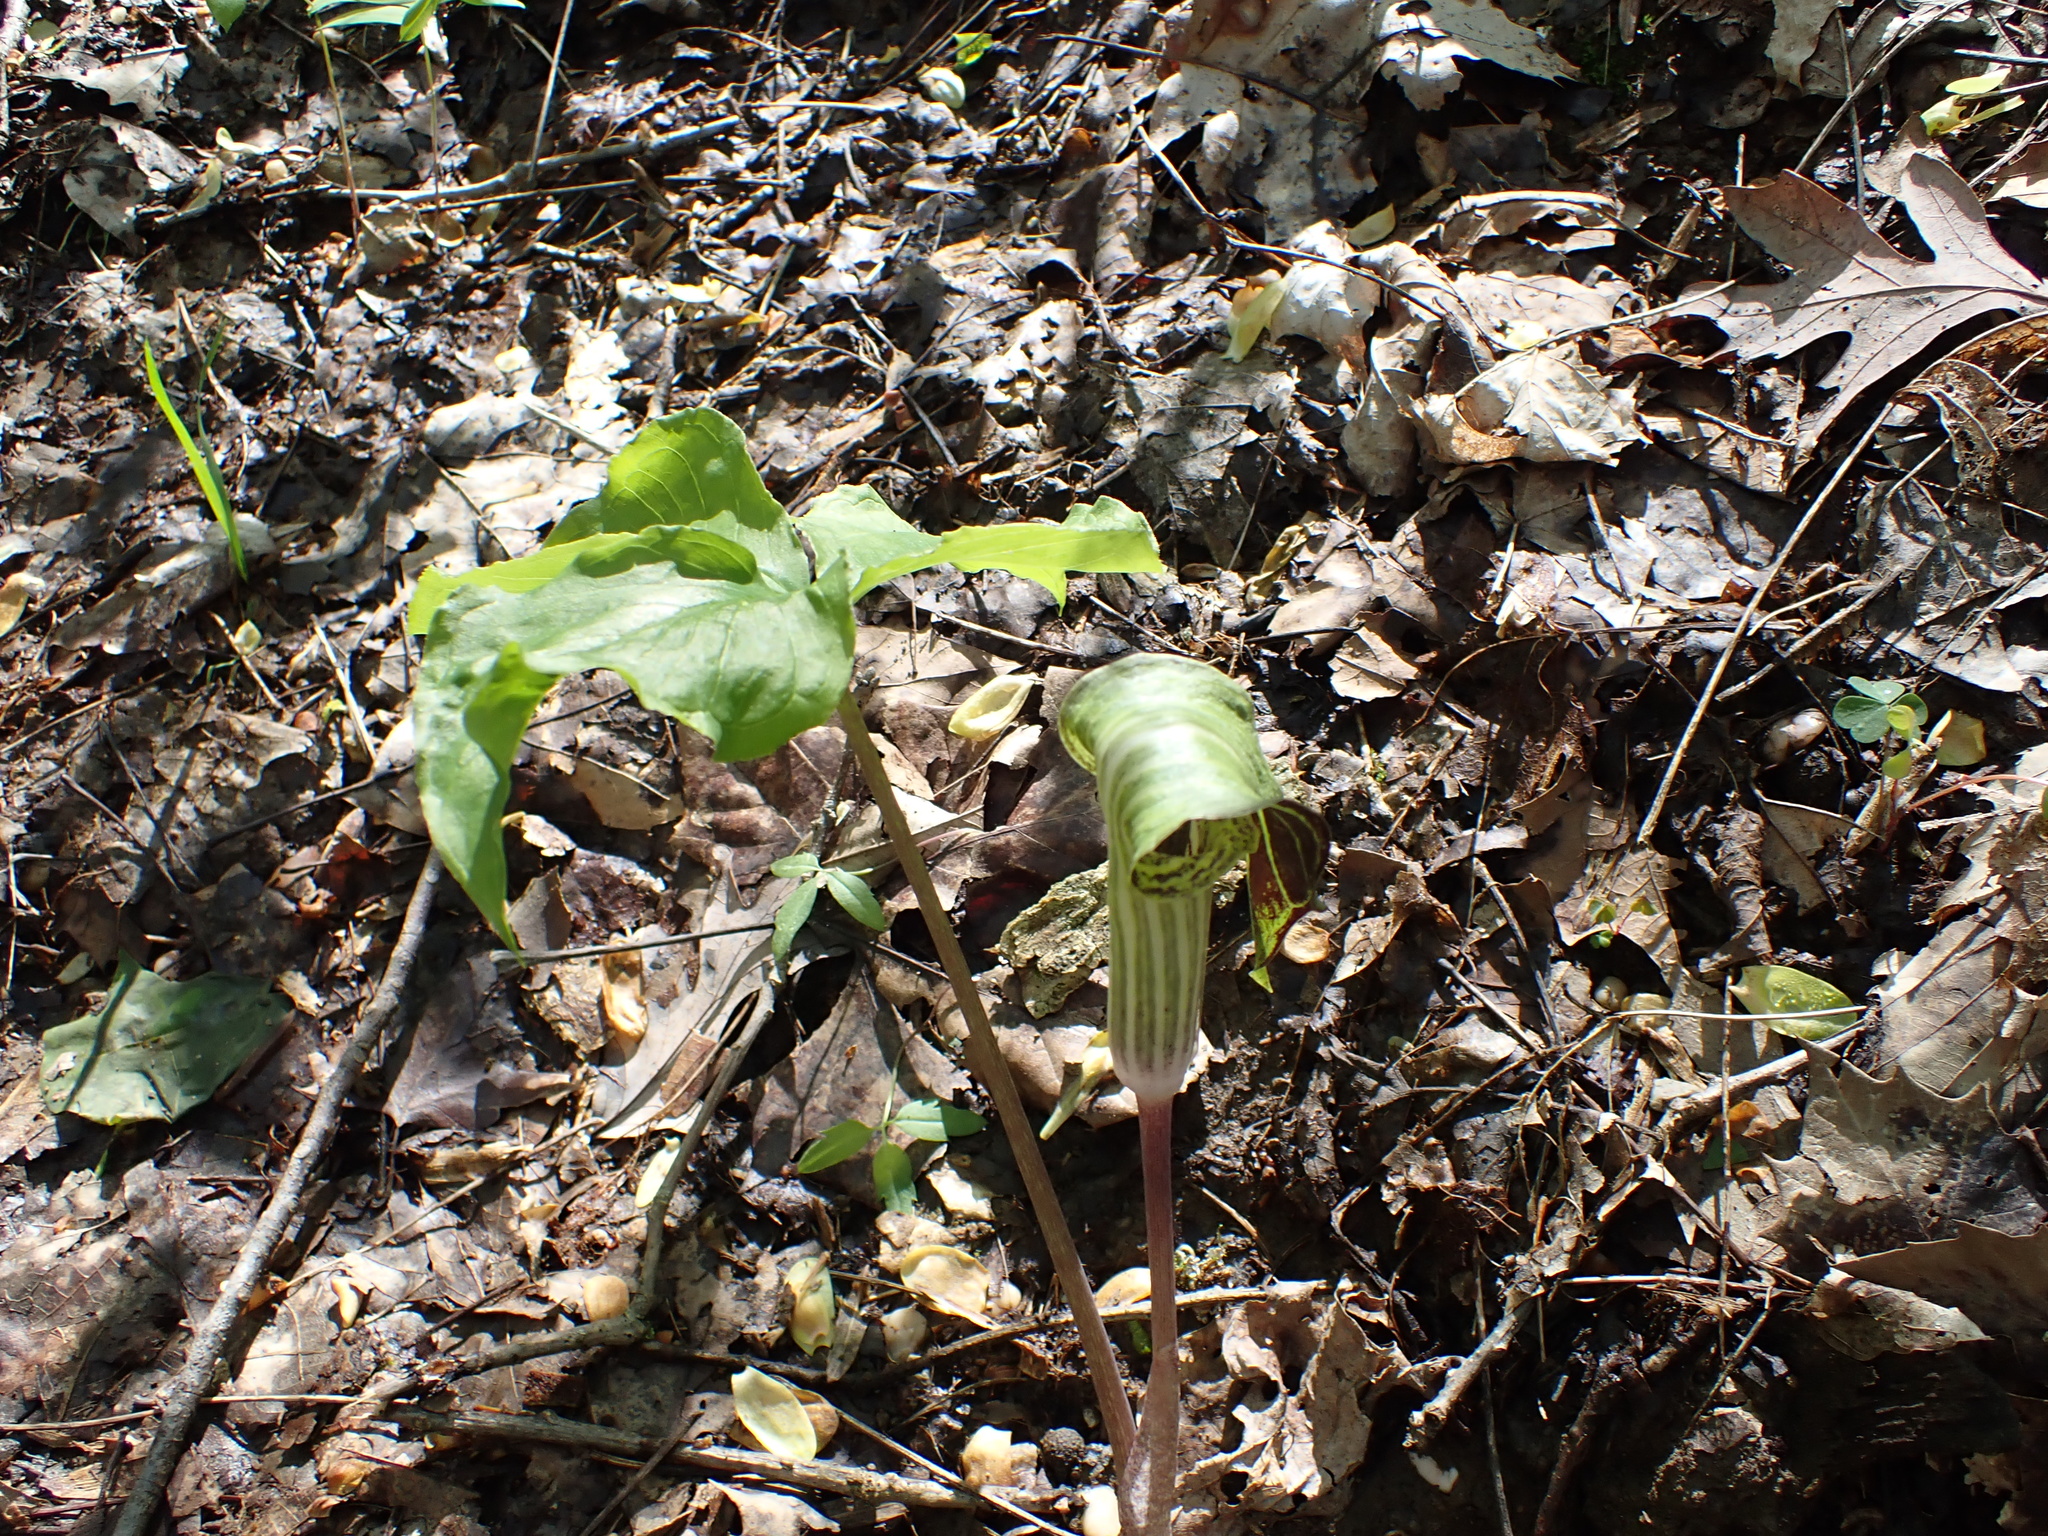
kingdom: Plantae
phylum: Tracheophyta
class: Liliopsida
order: Alismatales
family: Araceae
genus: Arisaema
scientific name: Arisaema triphyllum
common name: Jack-in-the-pulpit
